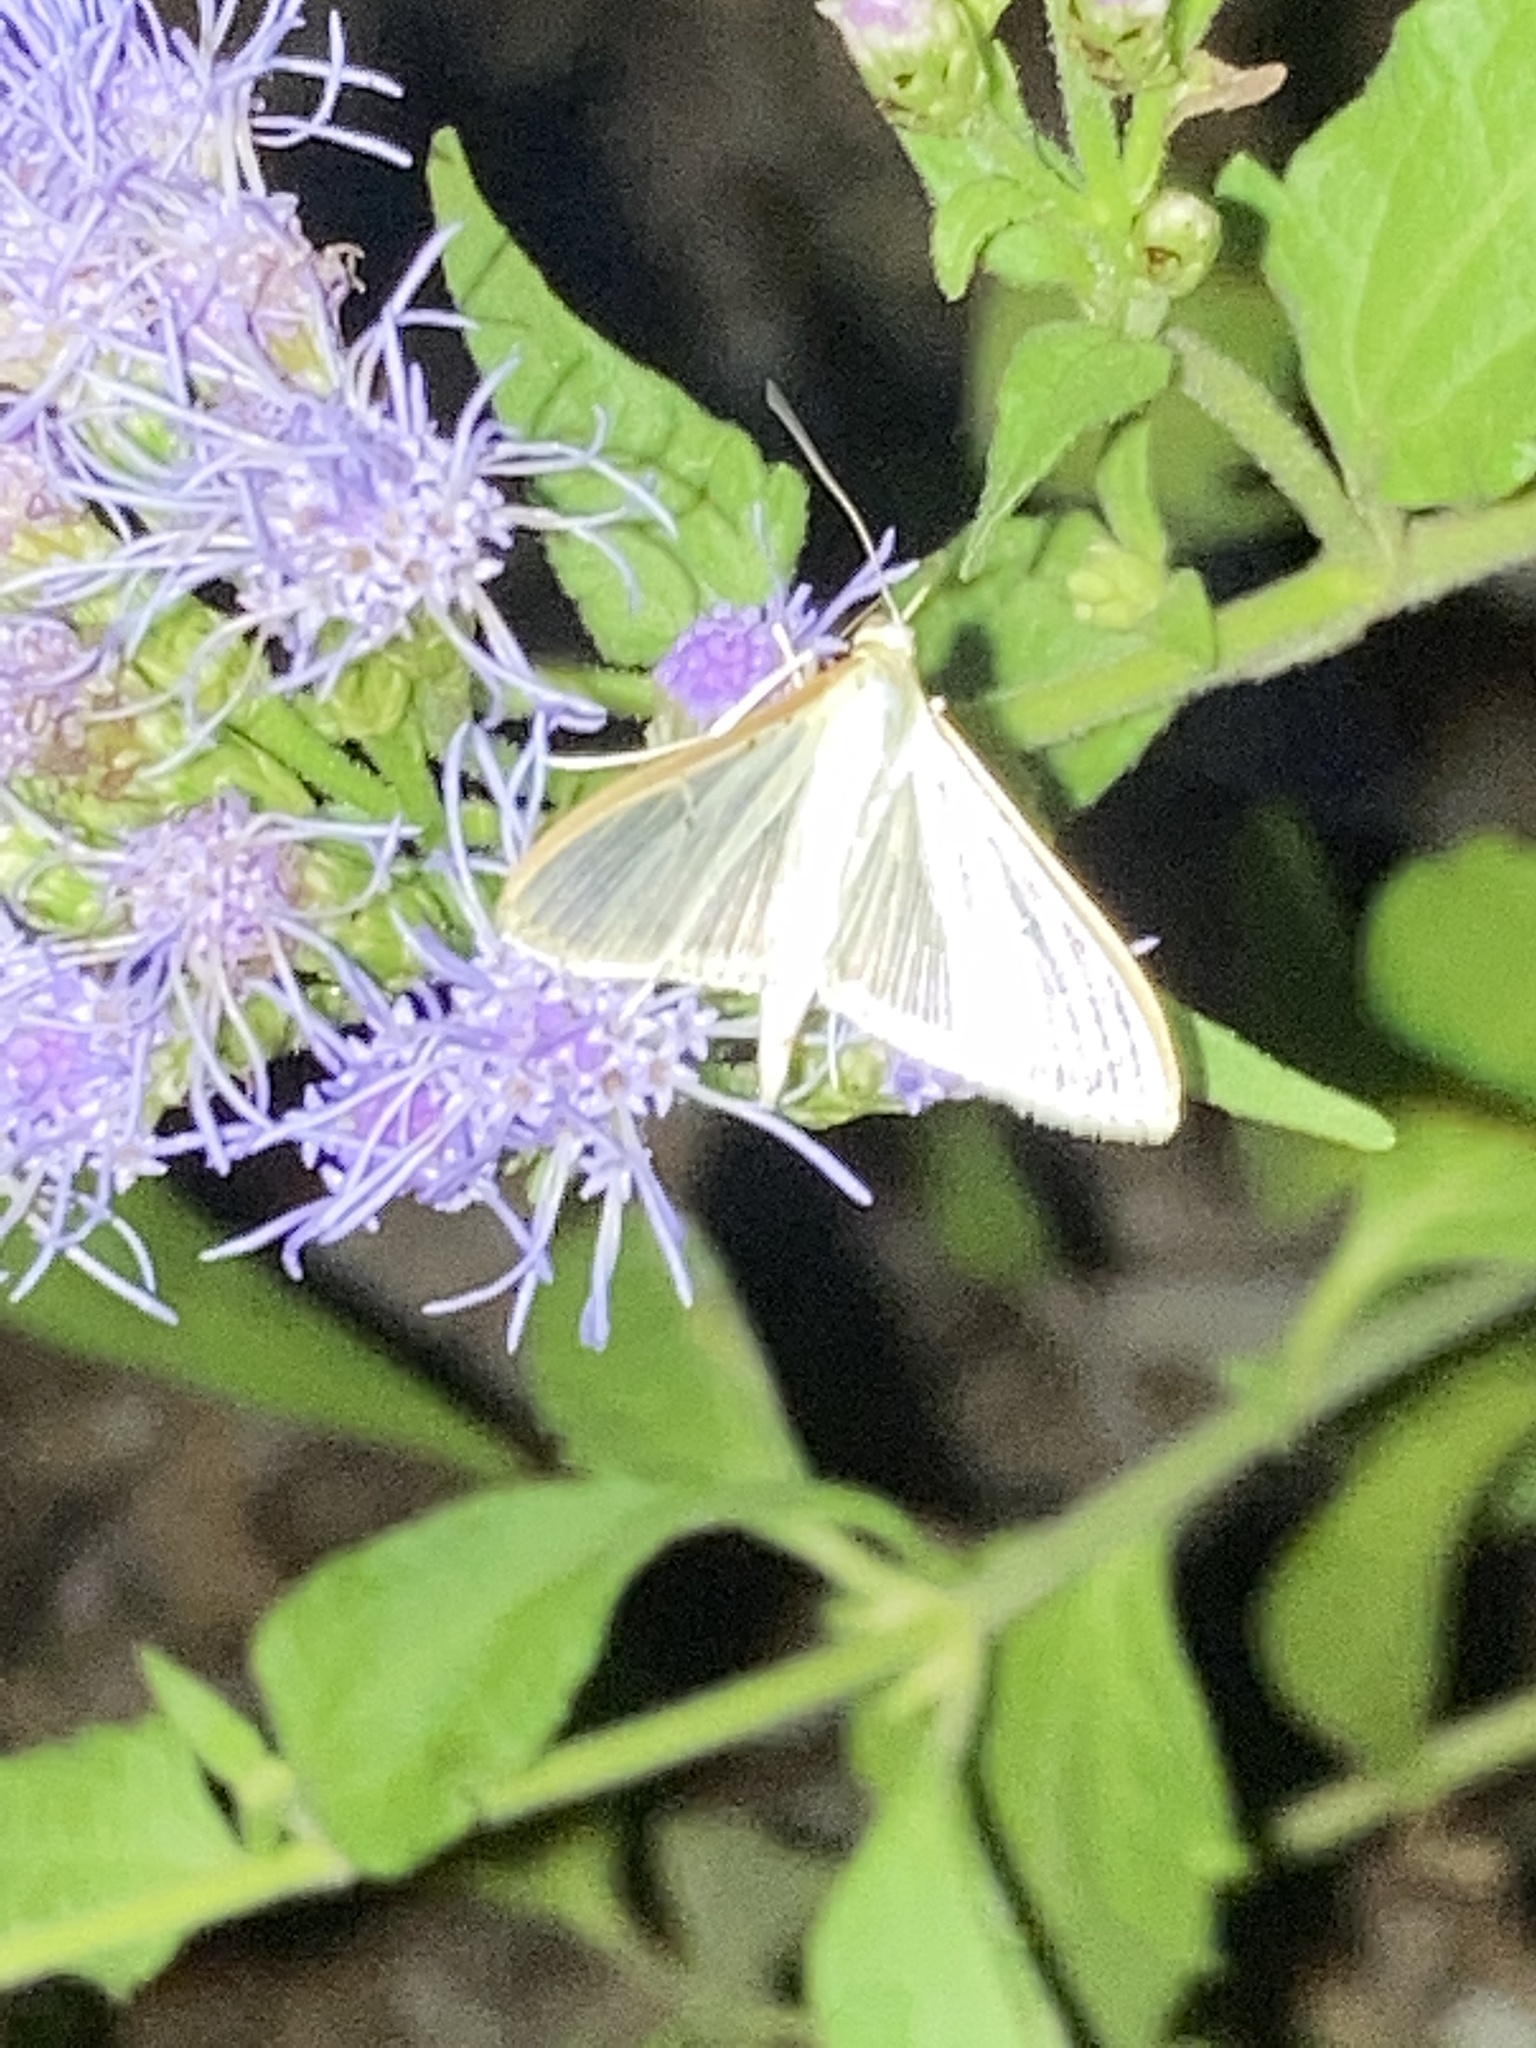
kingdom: Animalia
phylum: Arthropoda
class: Insecta
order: Lepidoptera
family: Crambidae
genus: Diaphania
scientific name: Diaphania costata
